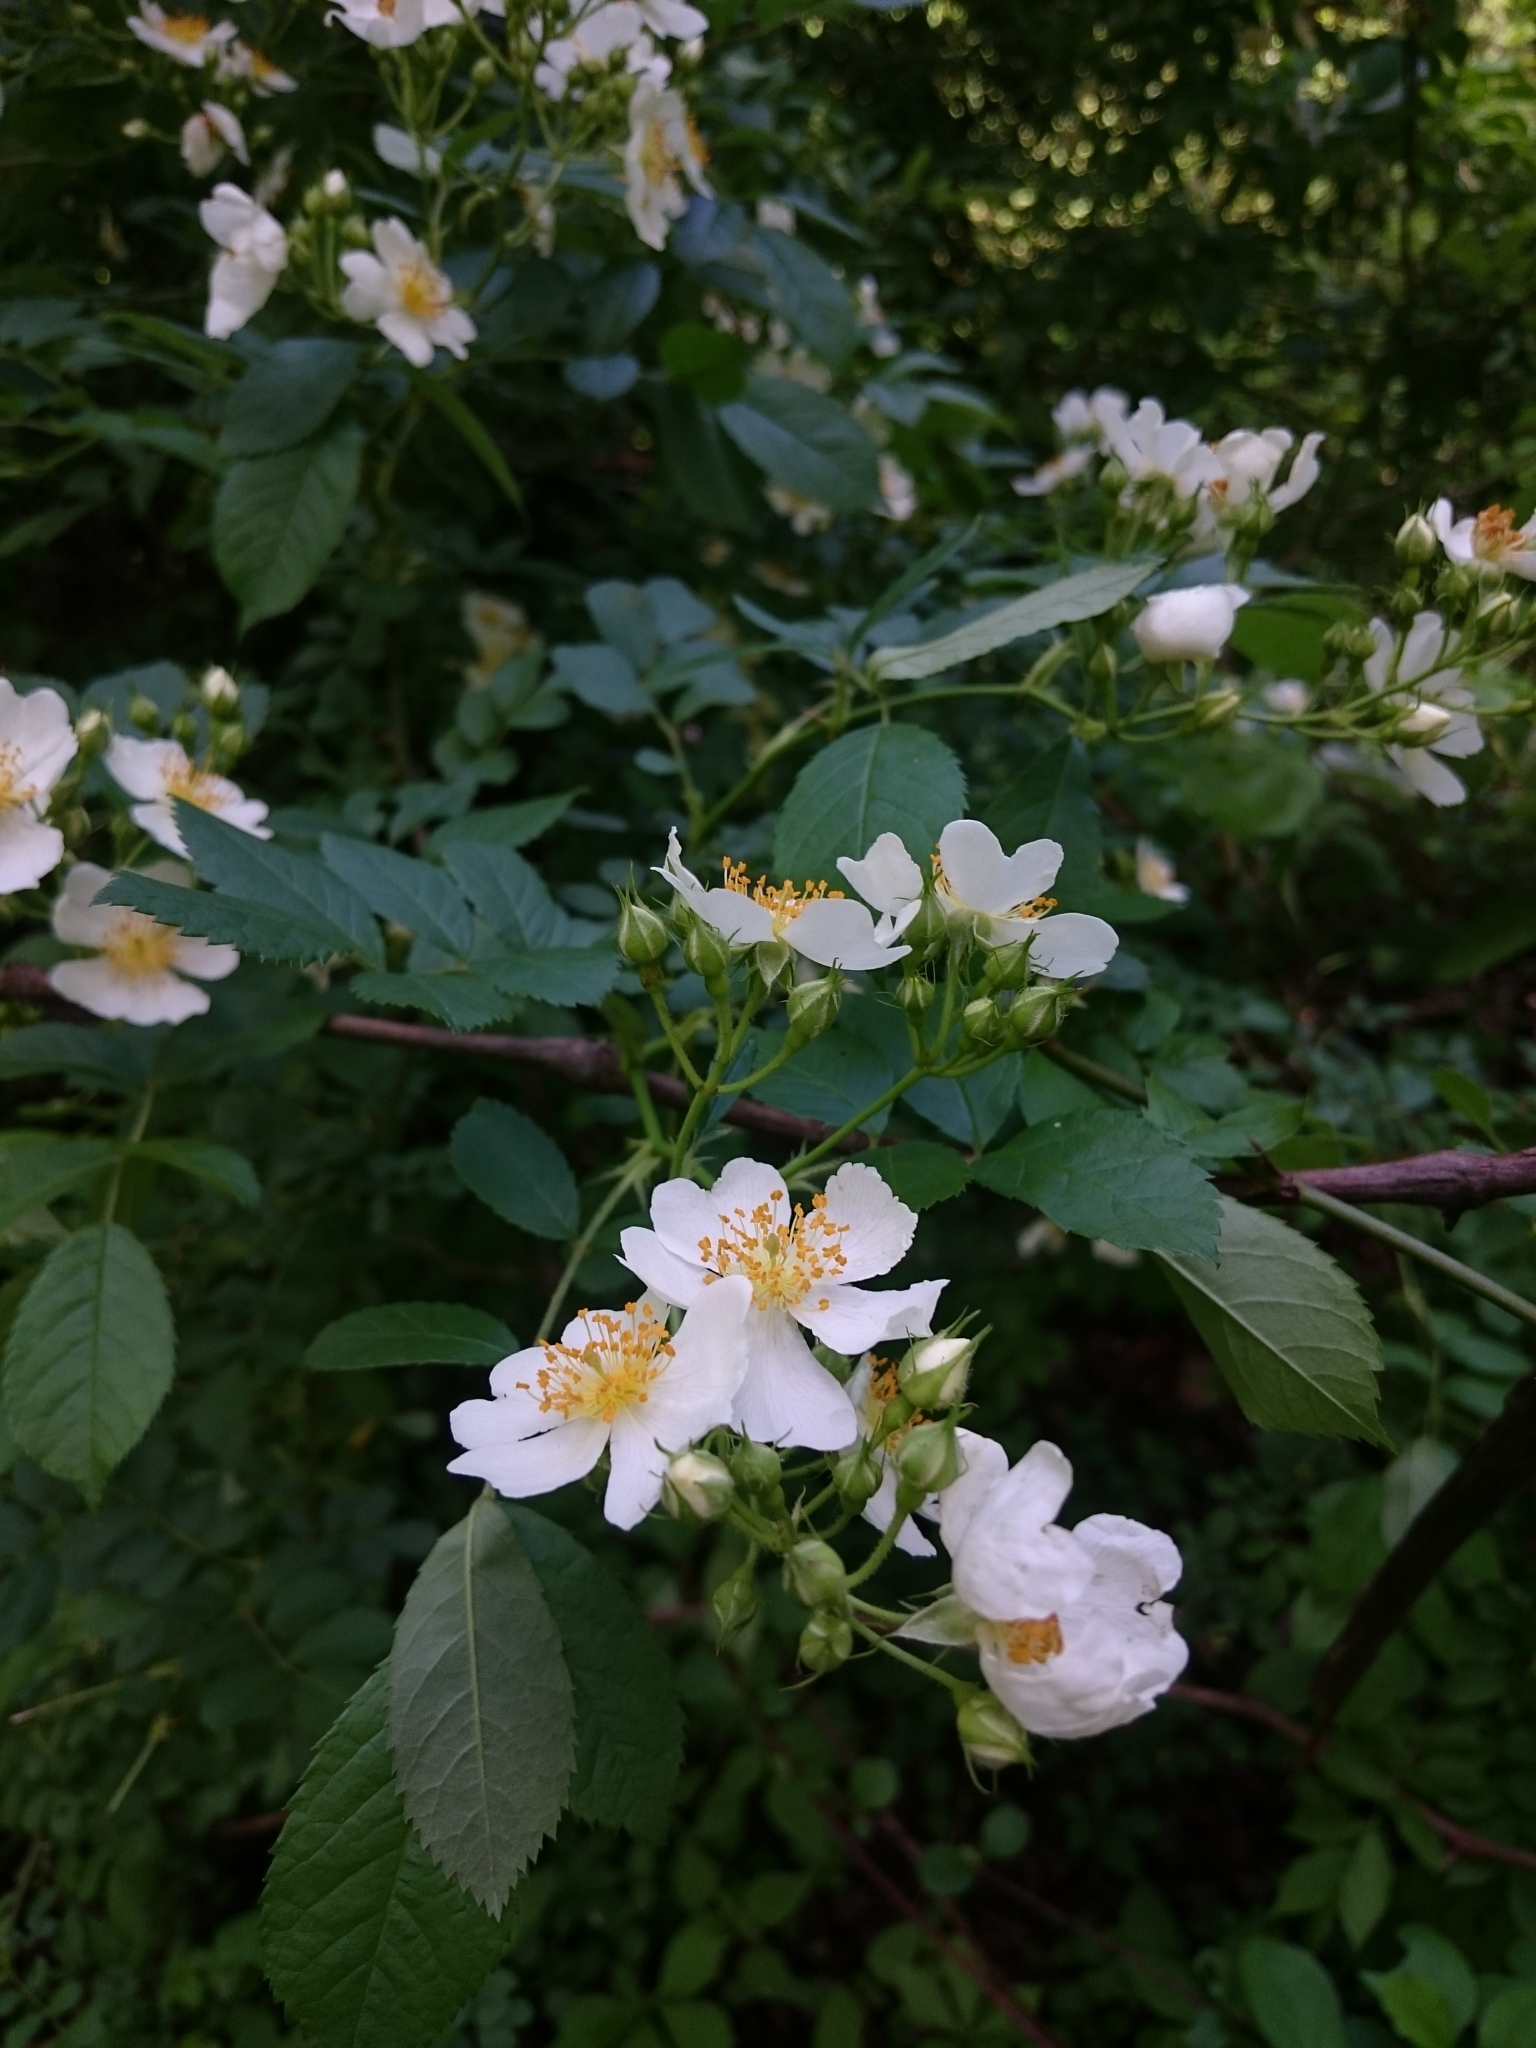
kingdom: Plantae
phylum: Tracheophyta
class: Magnoliopsida
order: Rosales
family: Rosaceae
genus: Rosa
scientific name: Rosa multiflora
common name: Multiflora rose
